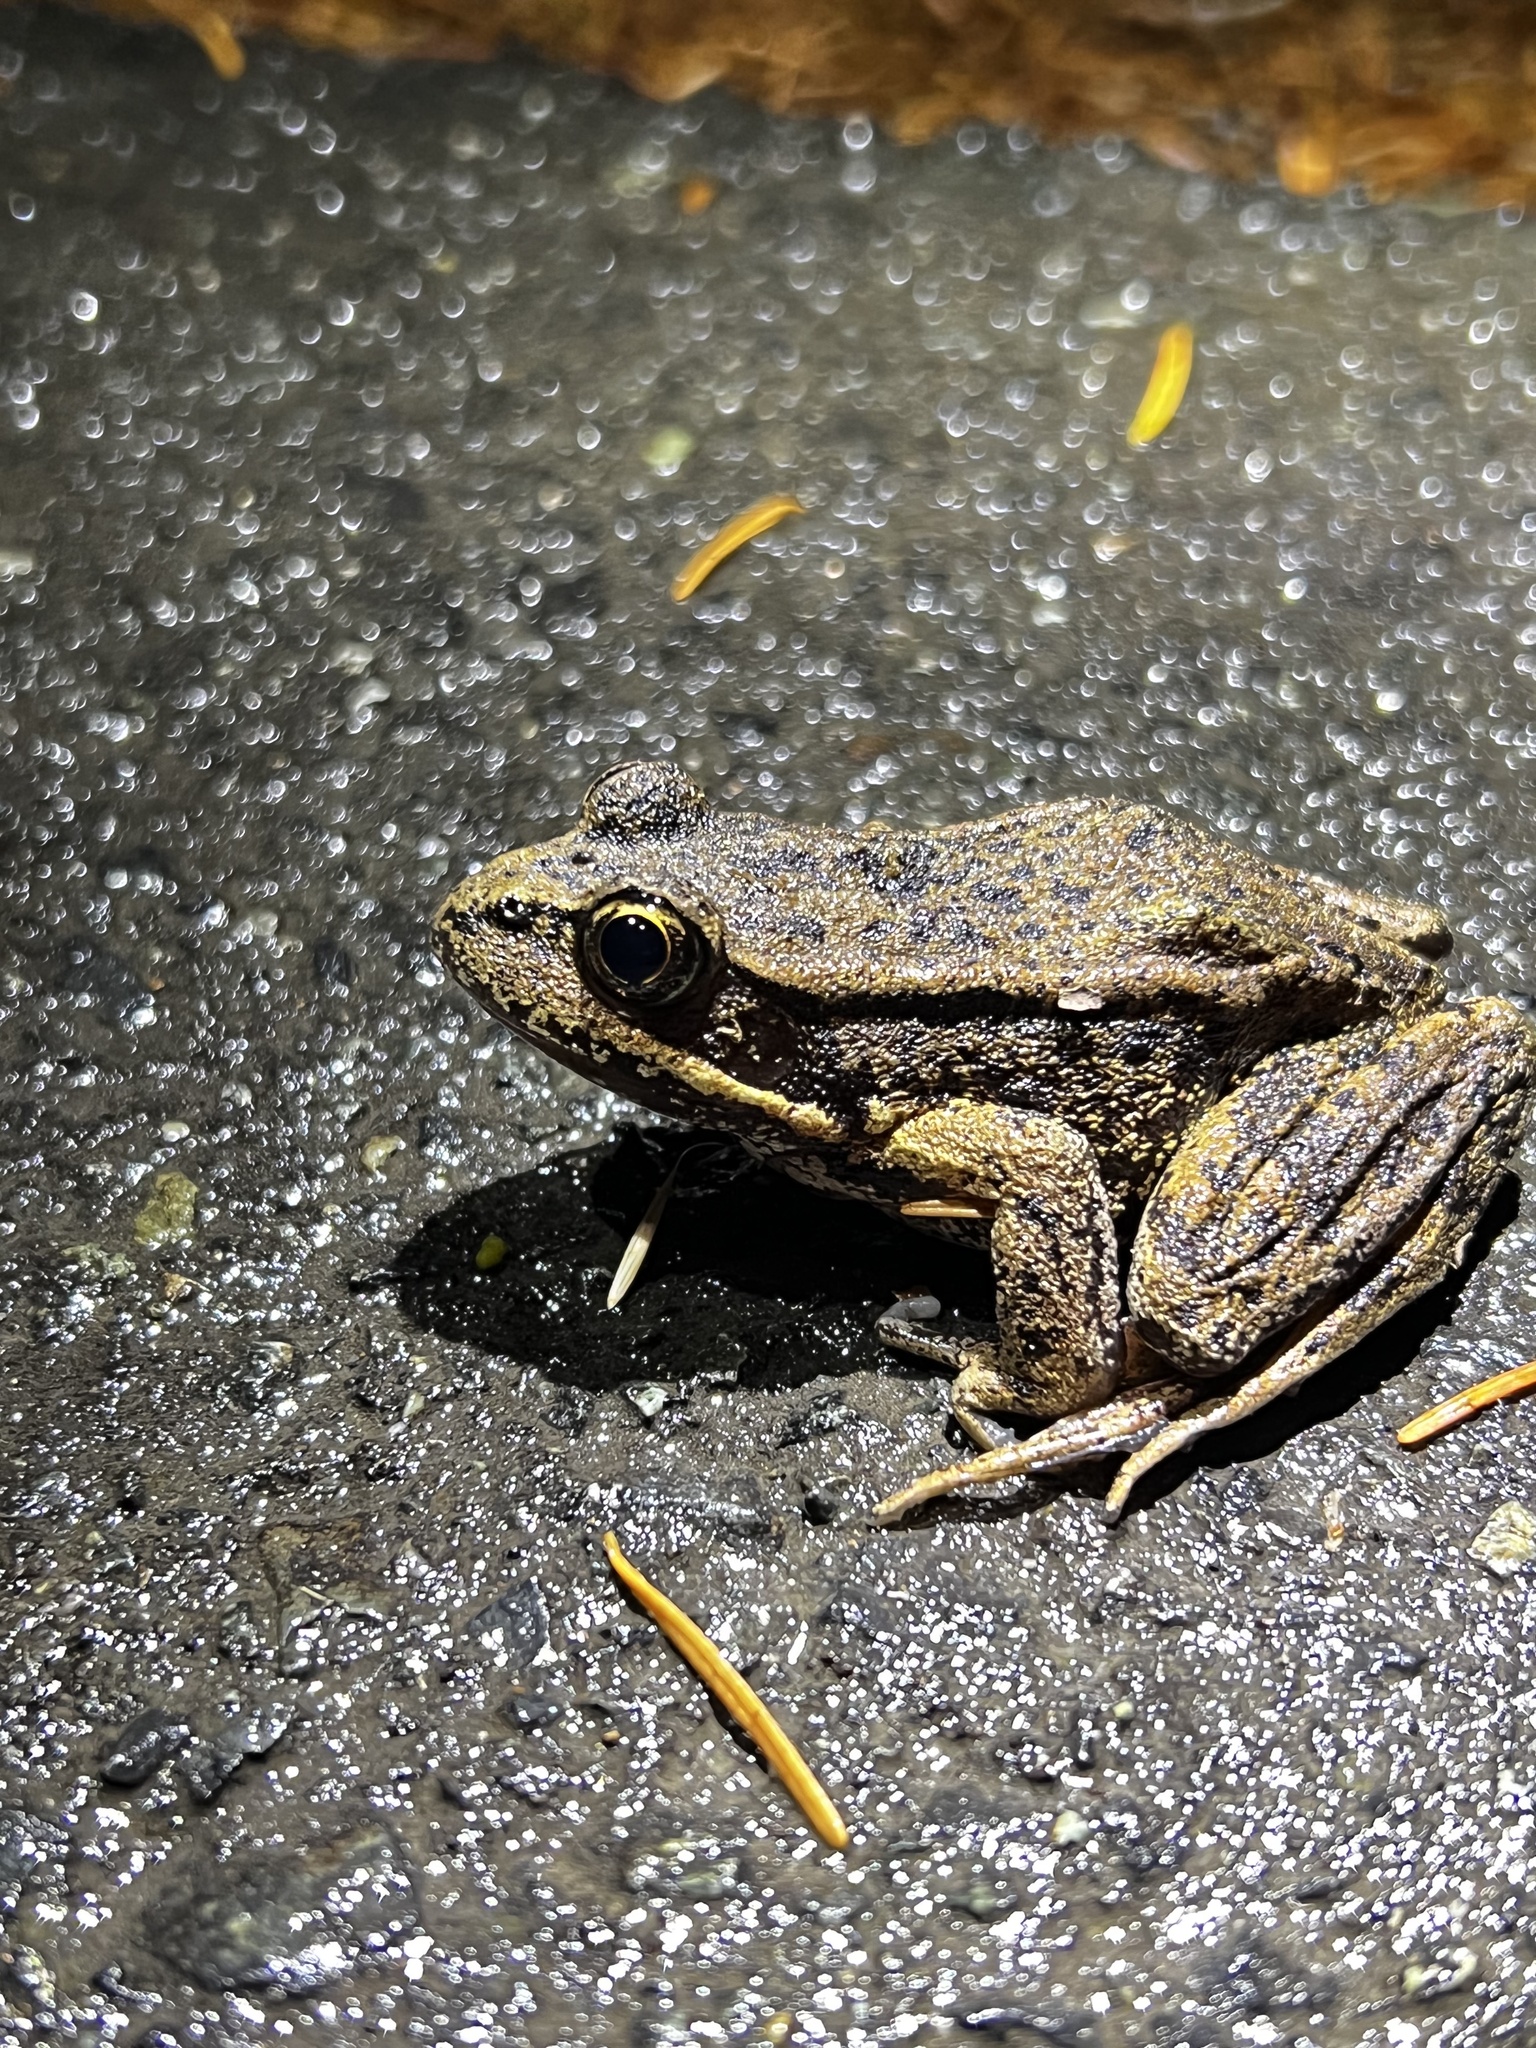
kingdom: Animalia
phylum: Chordata
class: Amphibia
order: Anura
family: Ranidae
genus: Rana
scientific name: Rana aurora
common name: Red-legged frog
